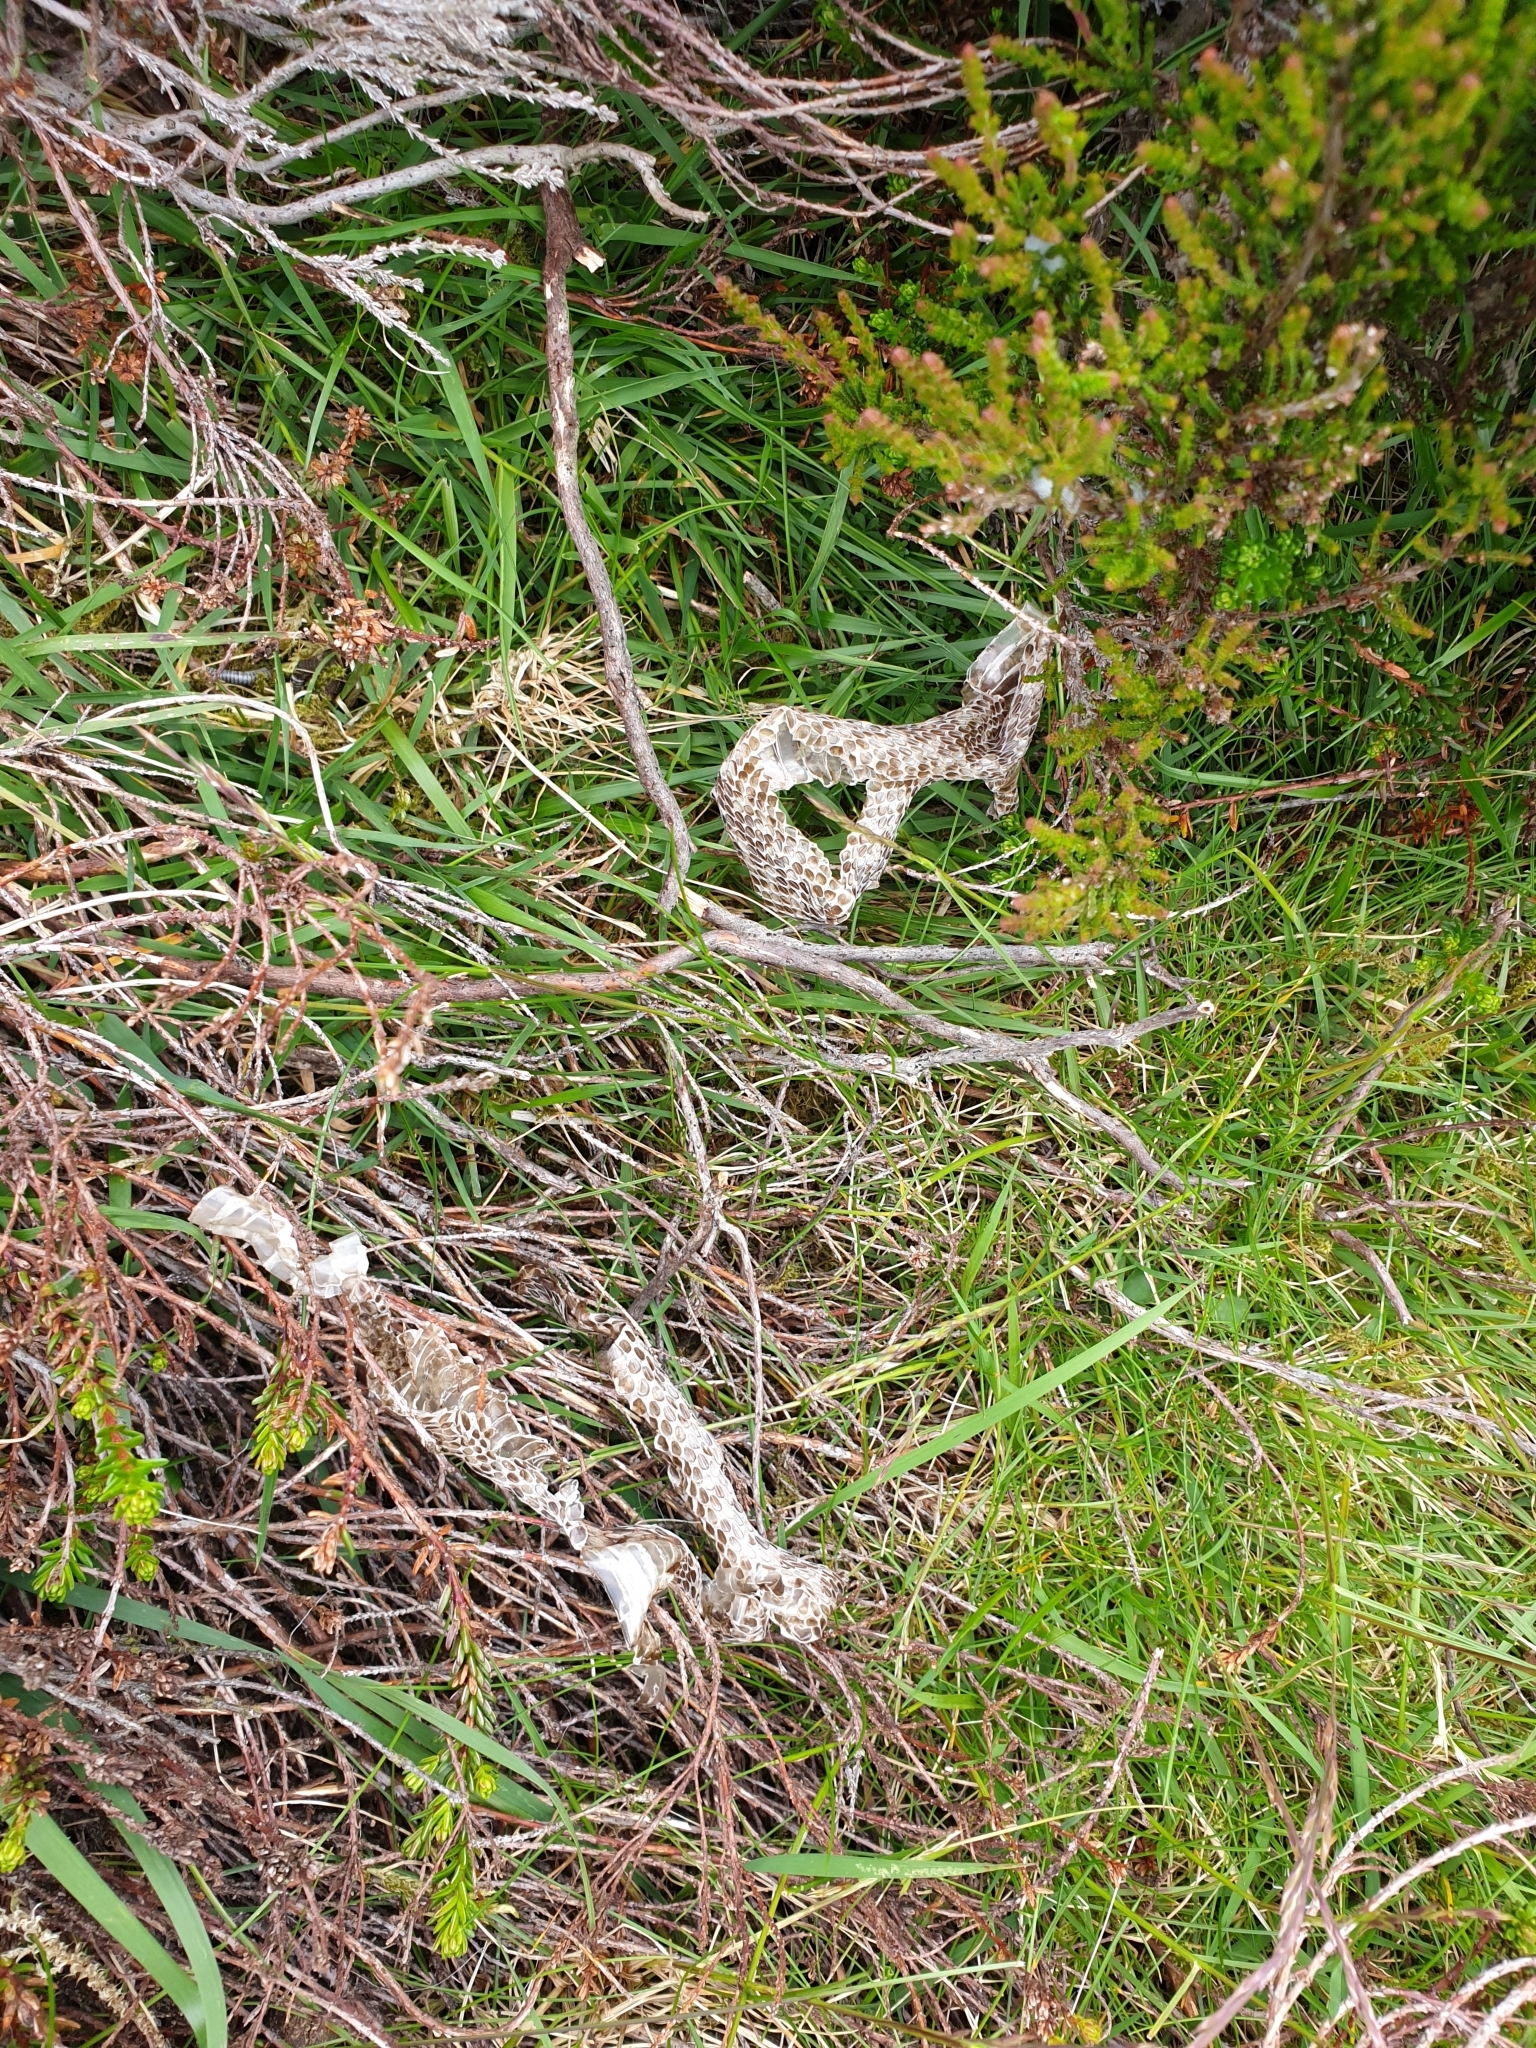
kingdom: Animalia
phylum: Chordata
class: Squamata
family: Viperidae
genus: Vipera
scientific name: Vipera berus
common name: Adder
